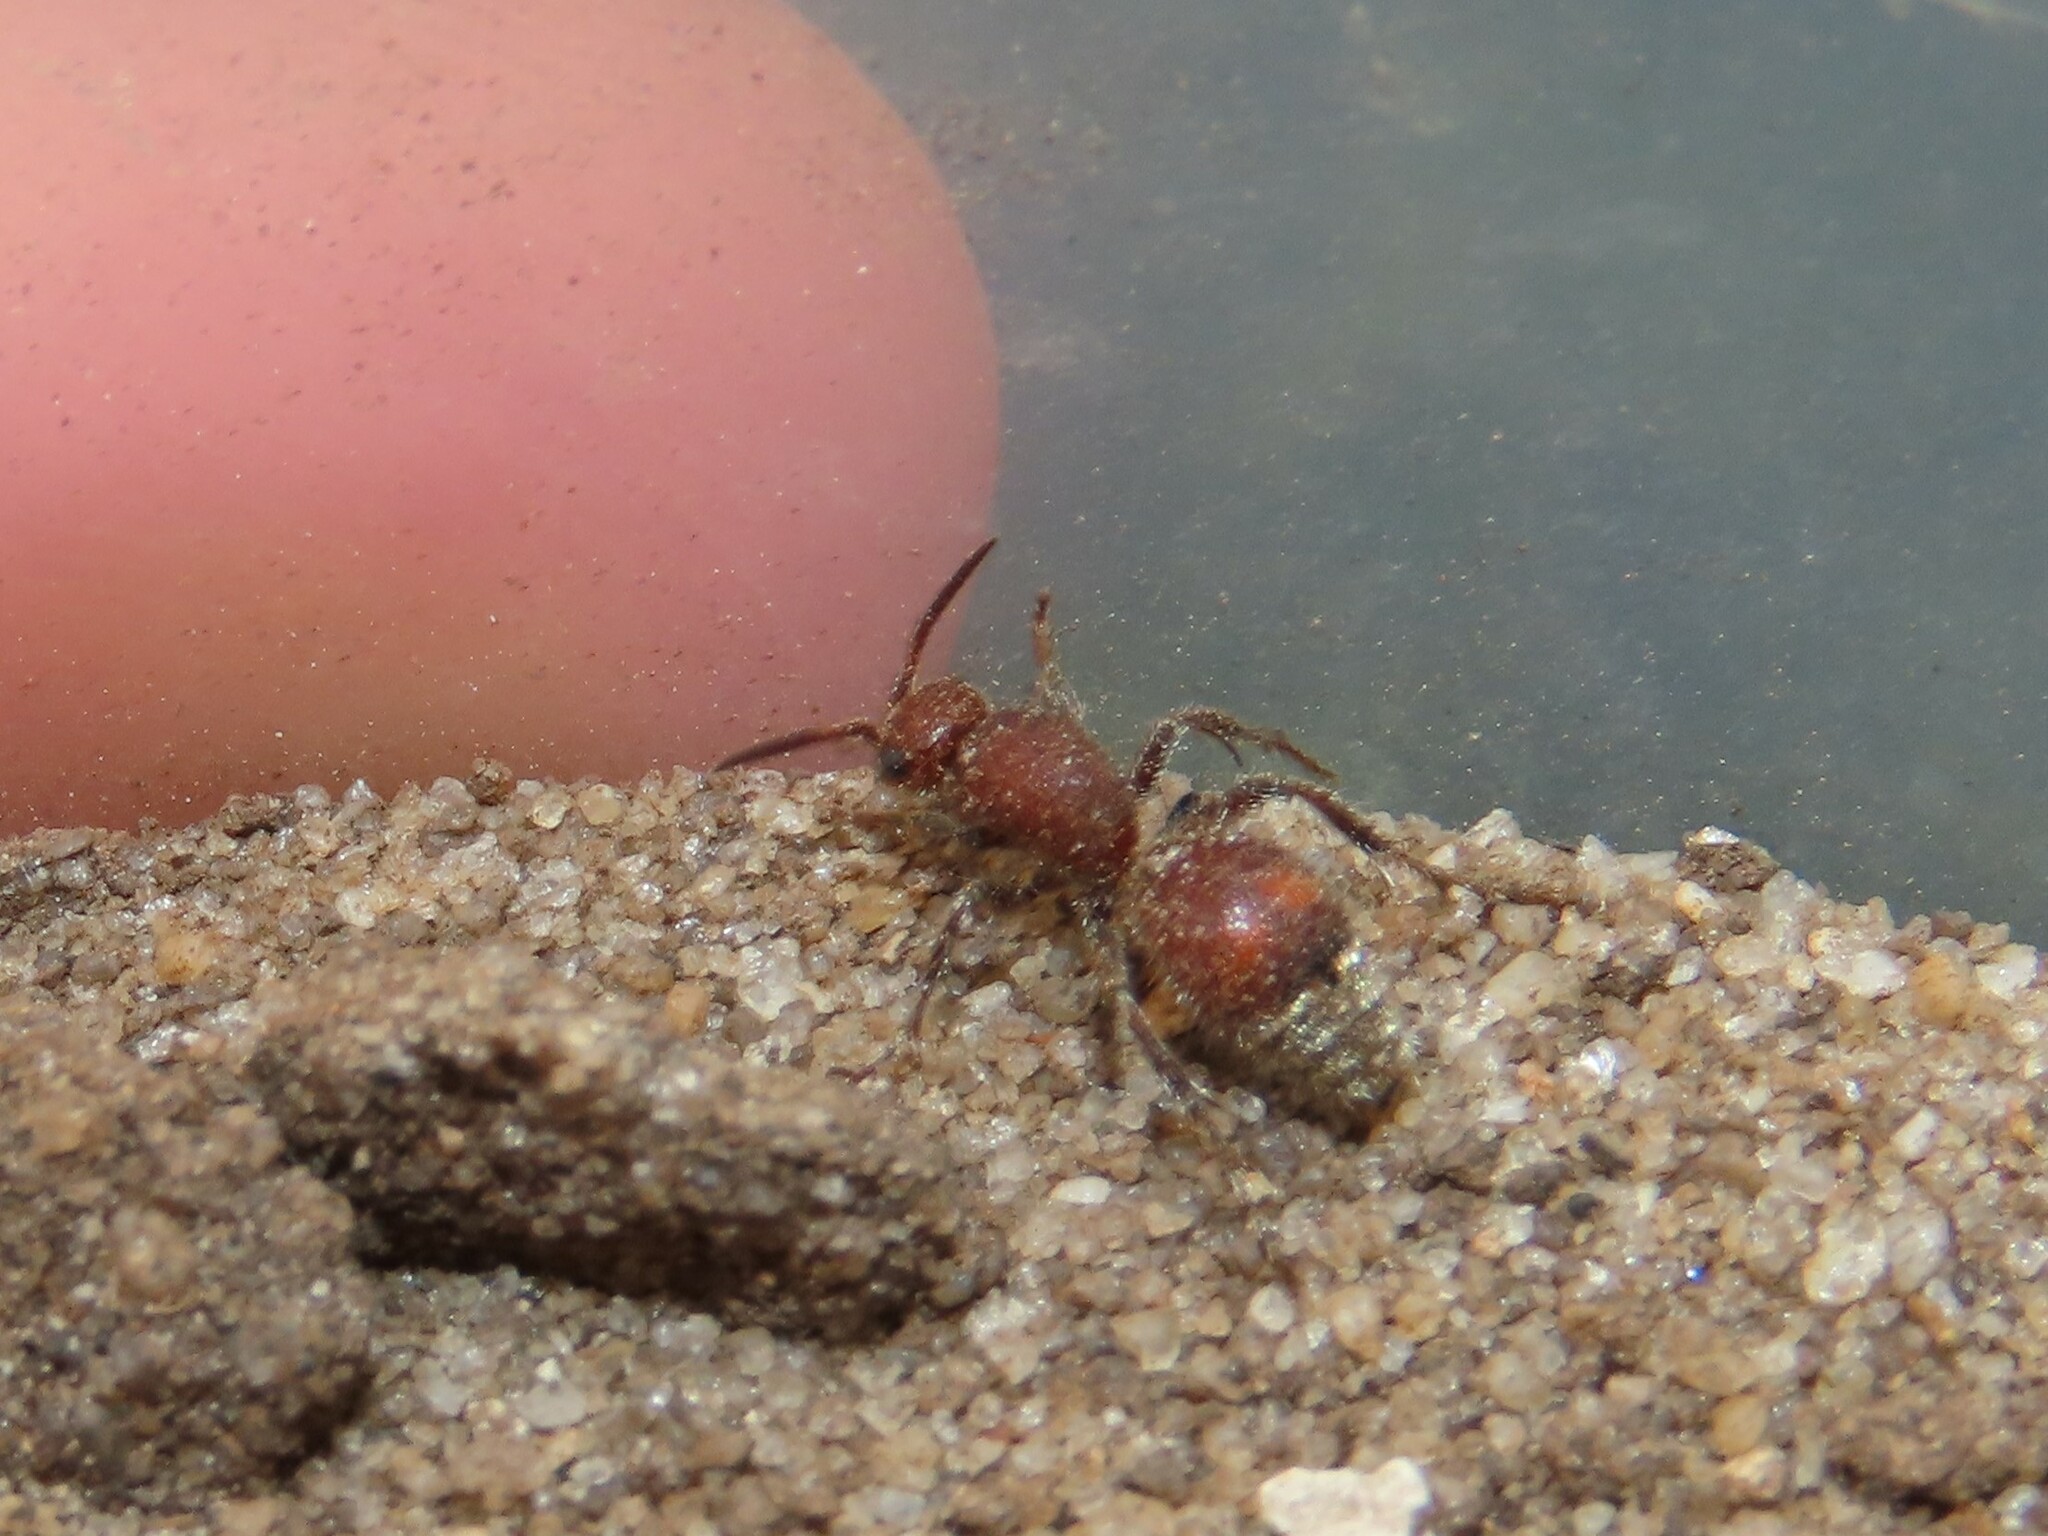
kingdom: Animalia
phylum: Arthropoda
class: Insecta
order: Hymenoptera
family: Mutillidae
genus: Dasymutilla
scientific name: Dasymutilla
